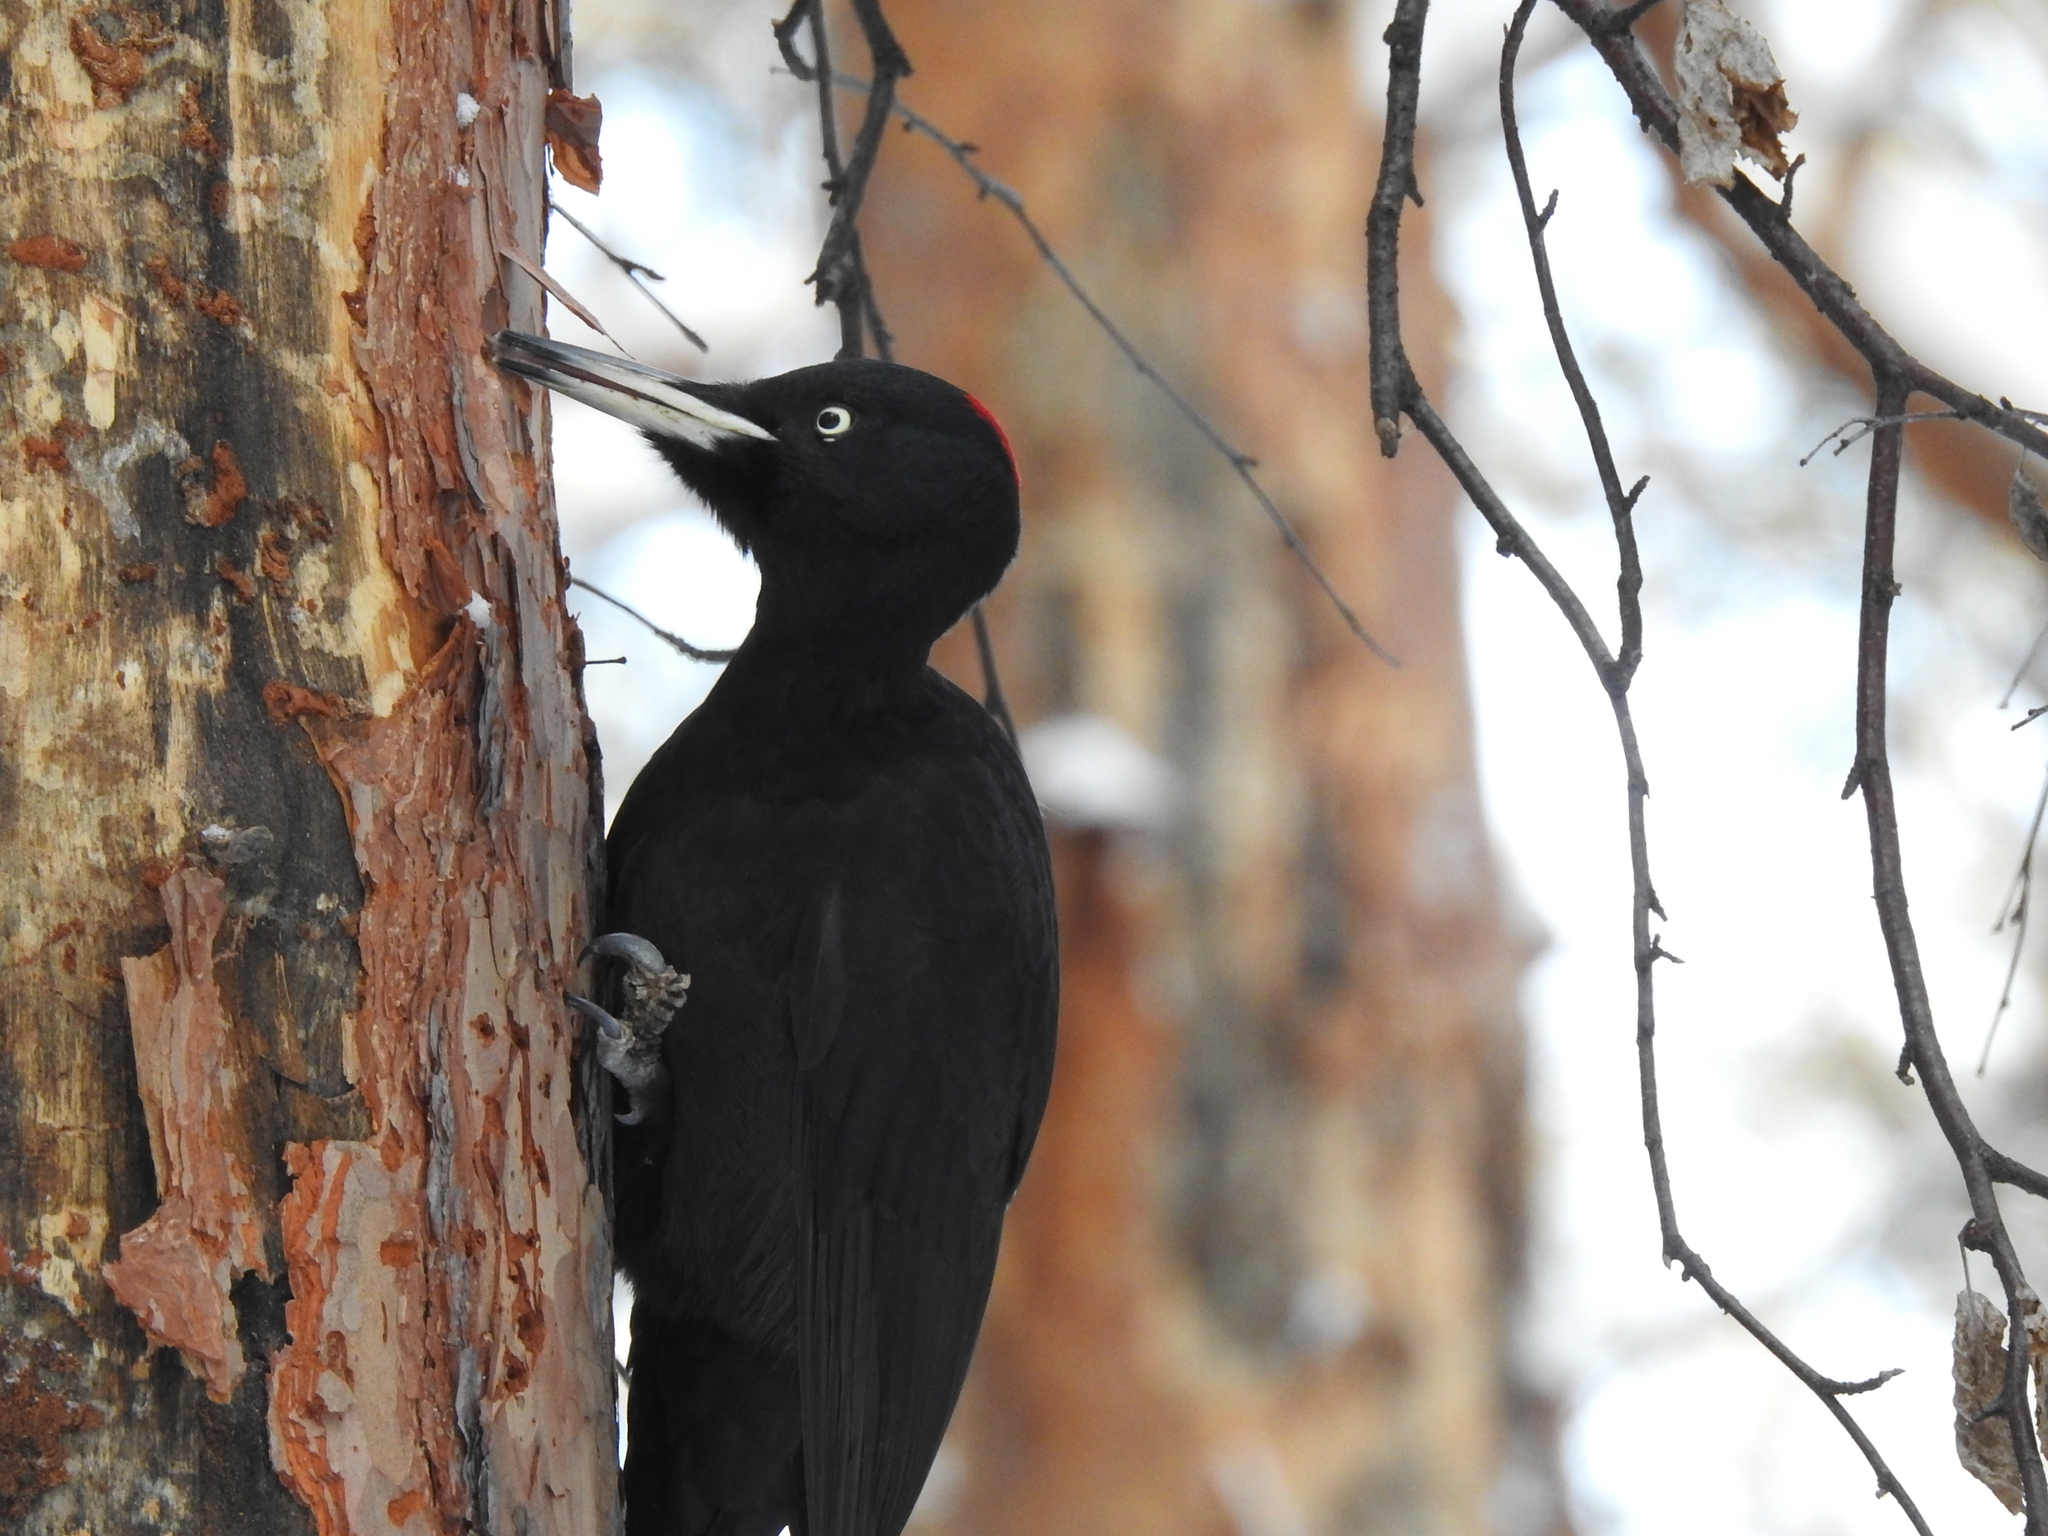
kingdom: Animalia
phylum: Chordata
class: Aves
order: Piciformes
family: Picidae
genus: Dryocopus
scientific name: Dryocopus martius
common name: Black woodpecker
